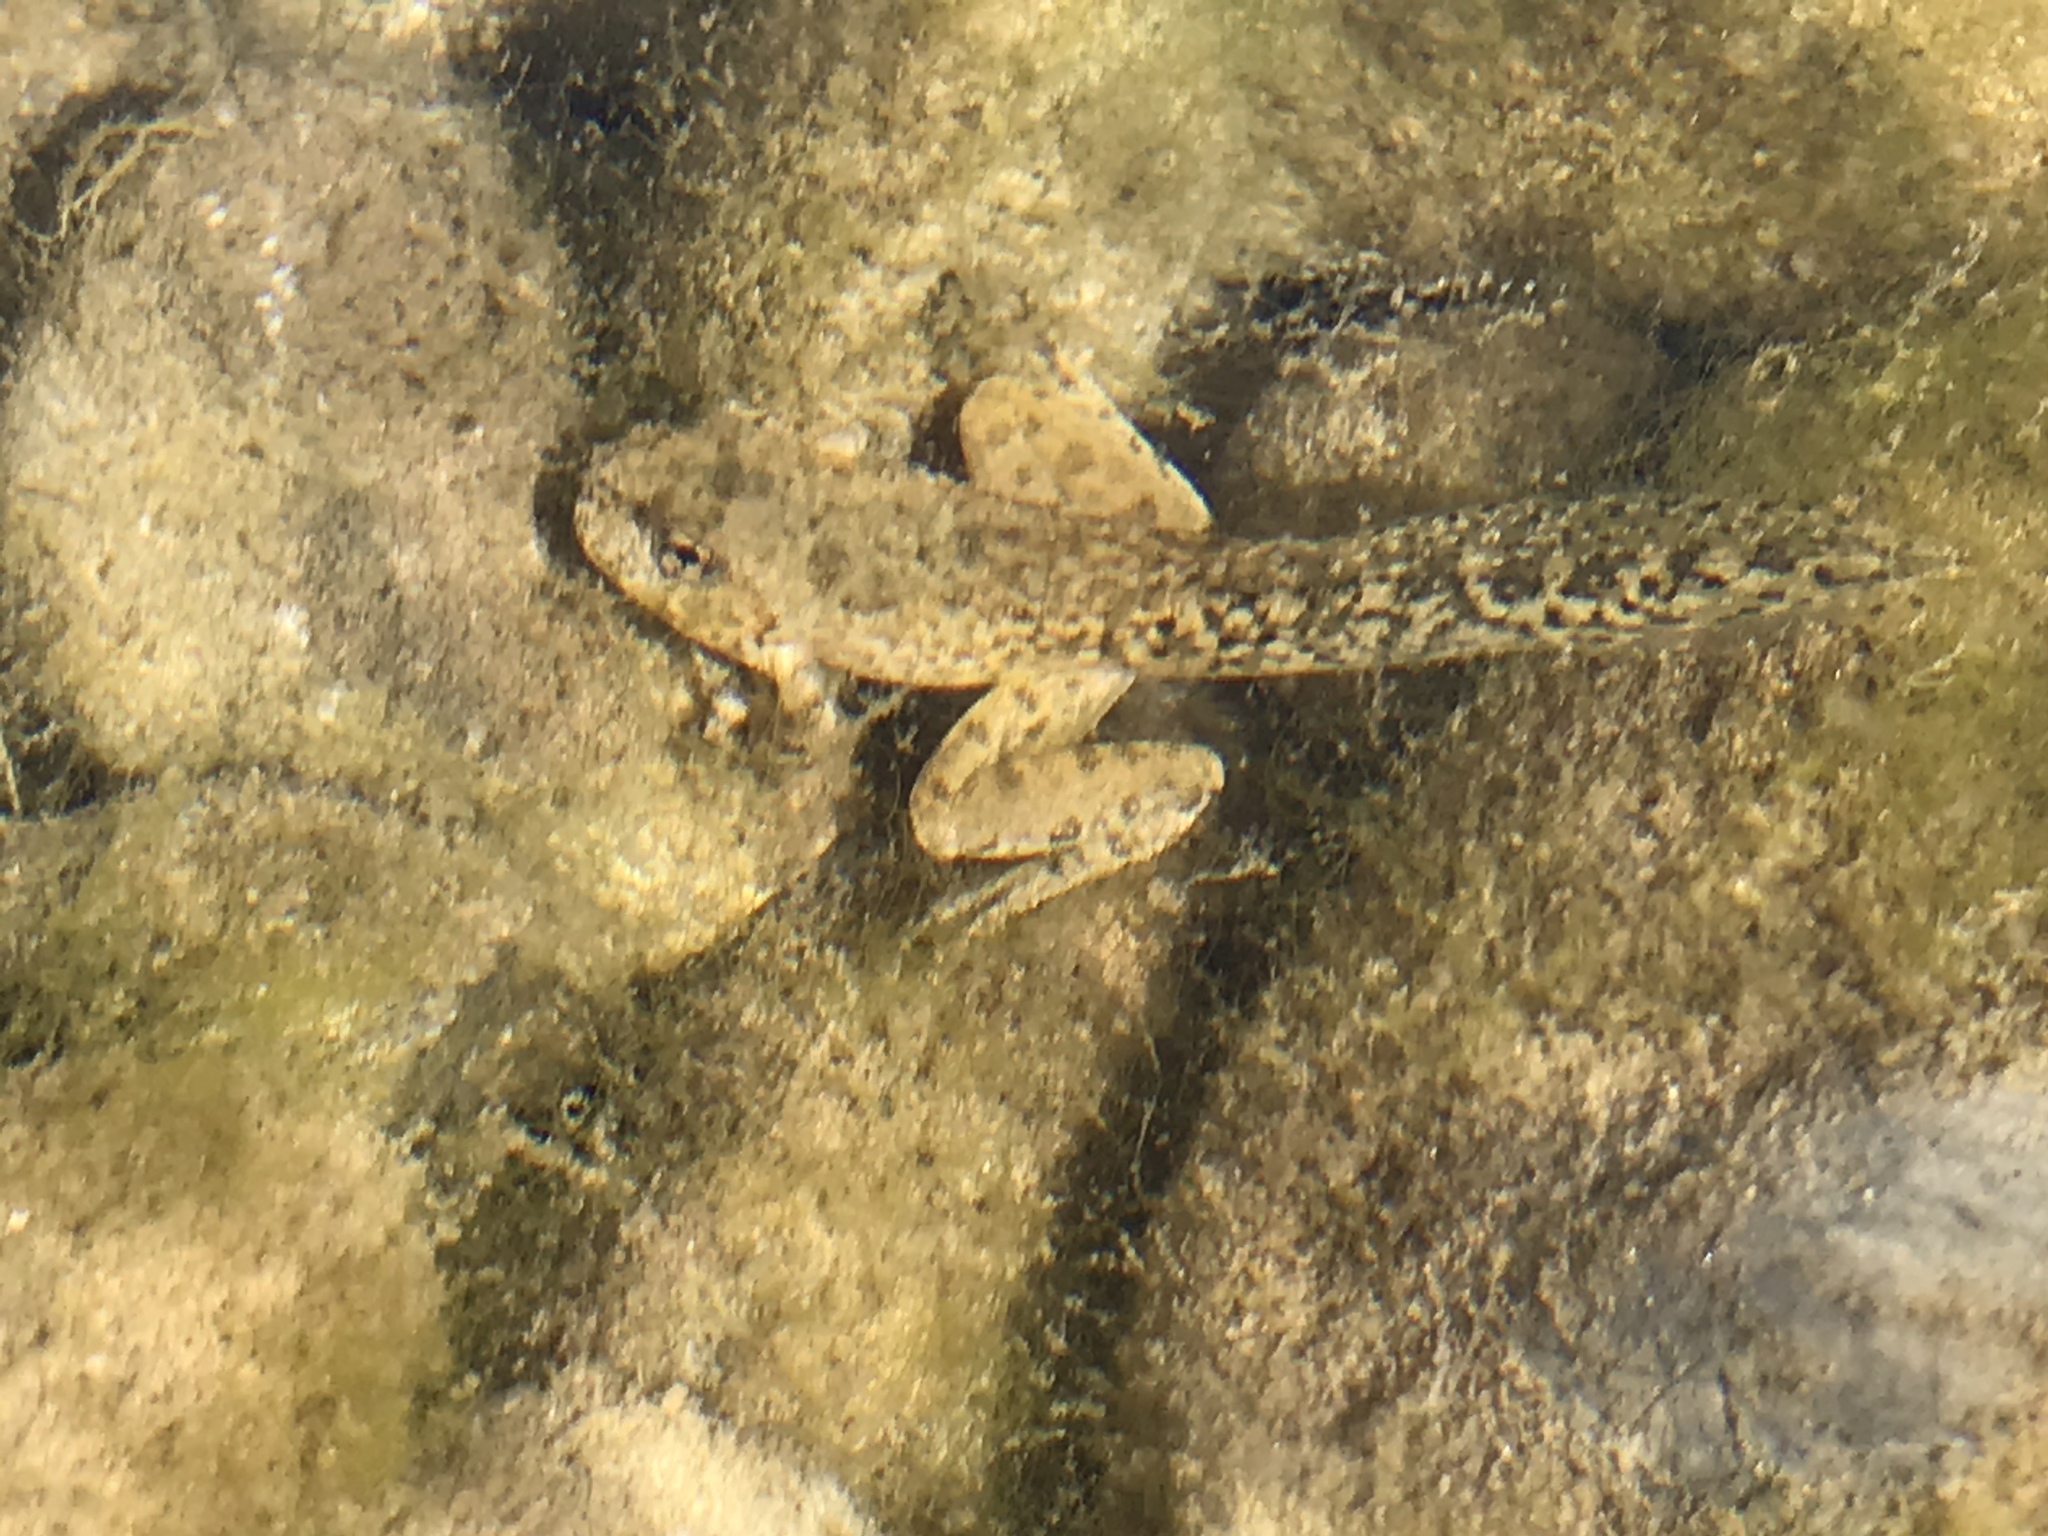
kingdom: Animalia
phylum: Chordata
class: Amphibia
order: Anura
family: Hylidae
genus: Pseudacris
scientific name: Pseudacris cadaverina
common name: California chorus frog
